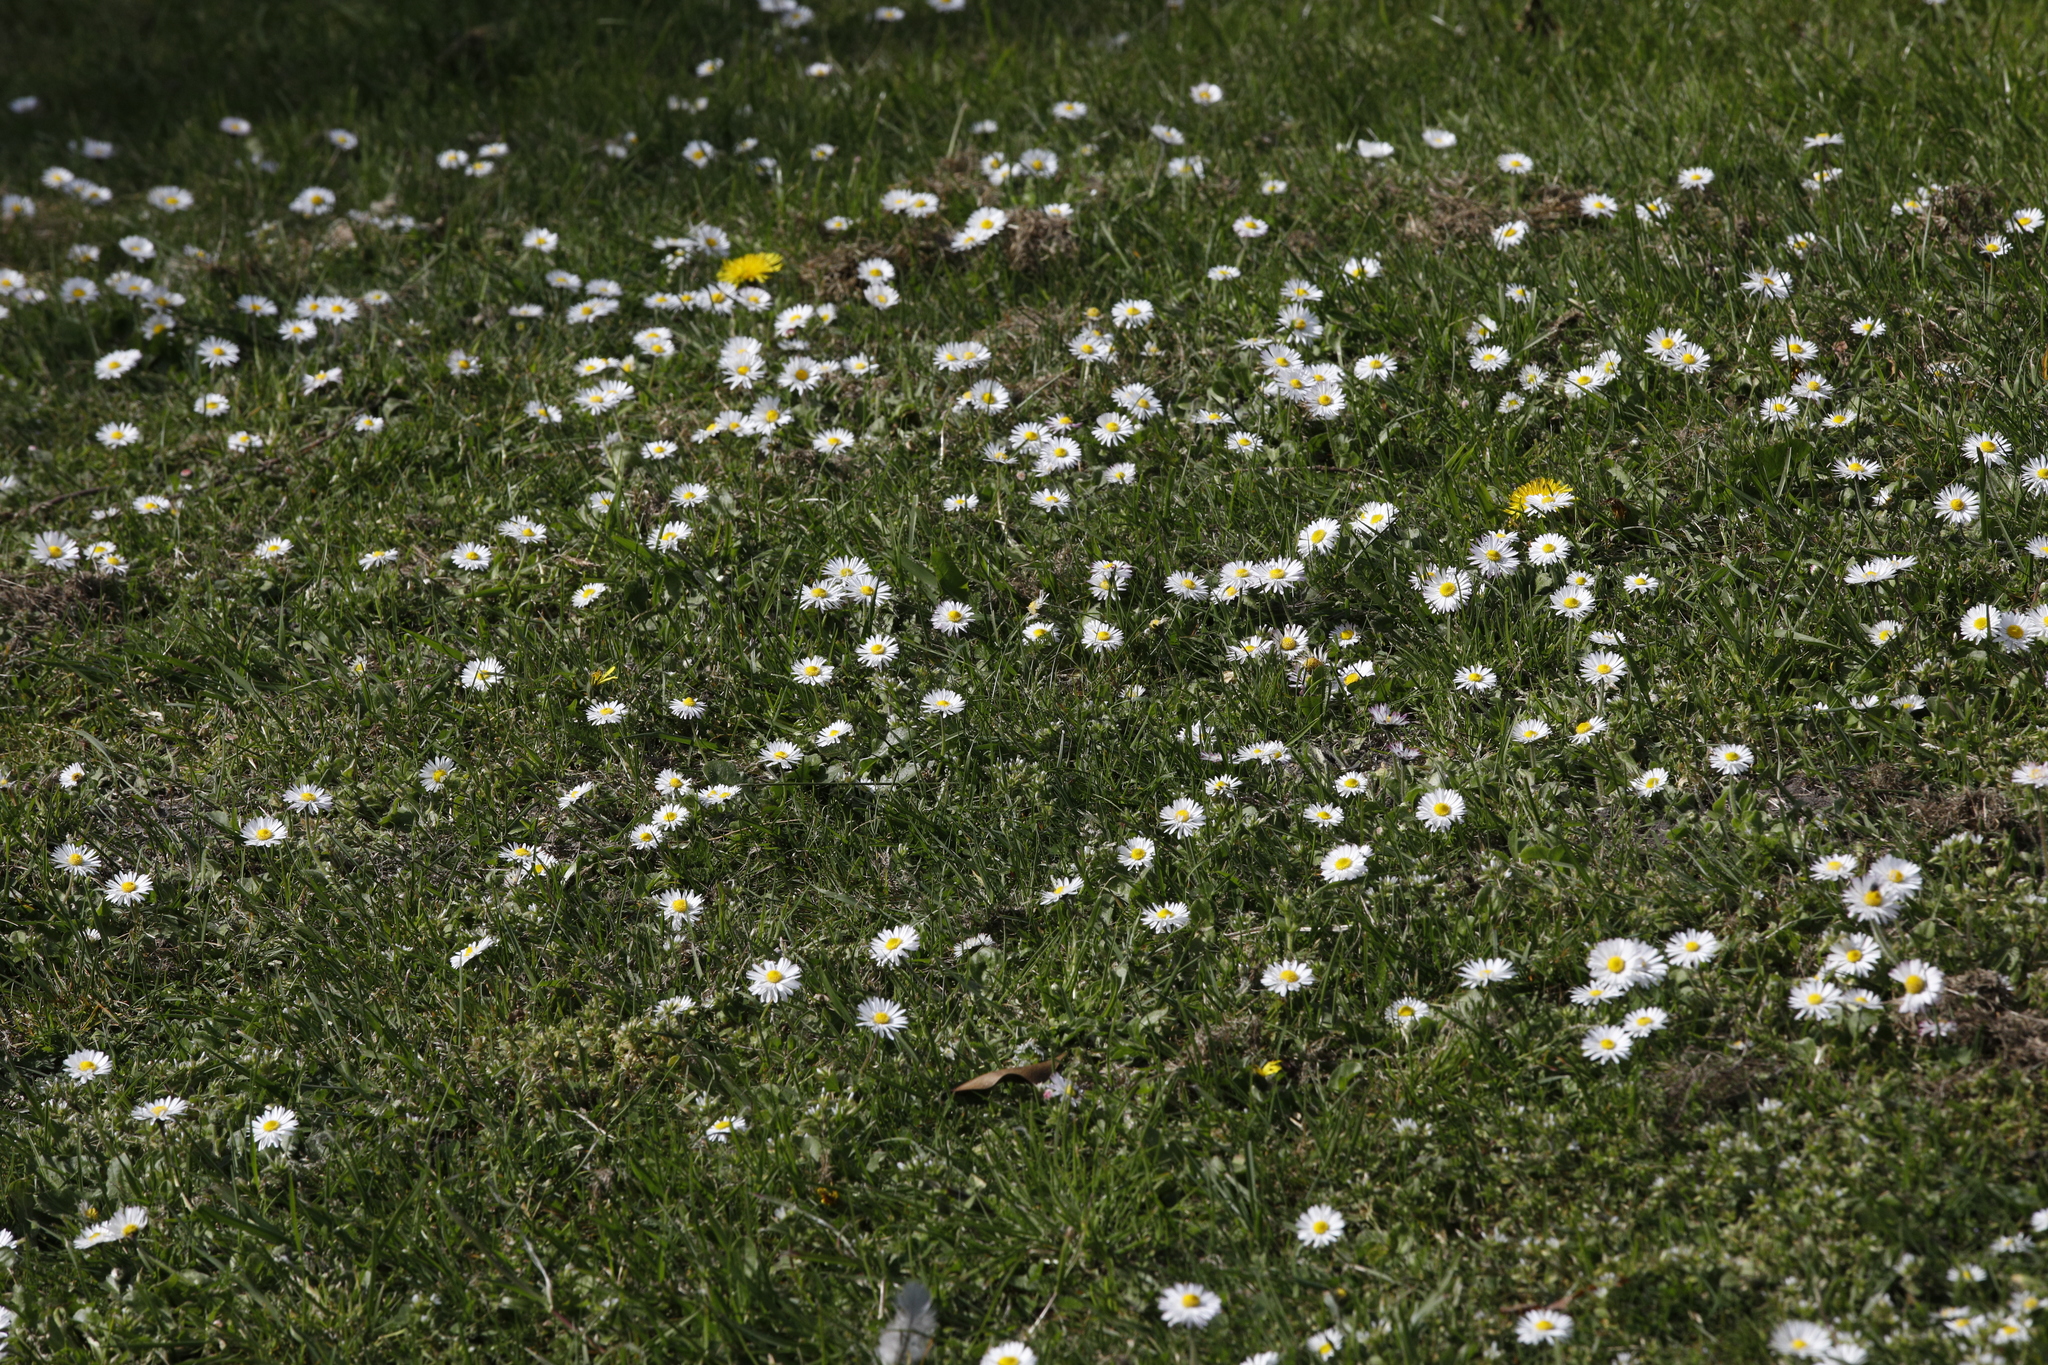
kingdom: Plantae
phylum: Tracheophyta
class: Magnoliopsida
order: Asterales
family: Asteraceae
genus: Bellis
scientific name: Bellis perennis
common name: Lawndaisy
